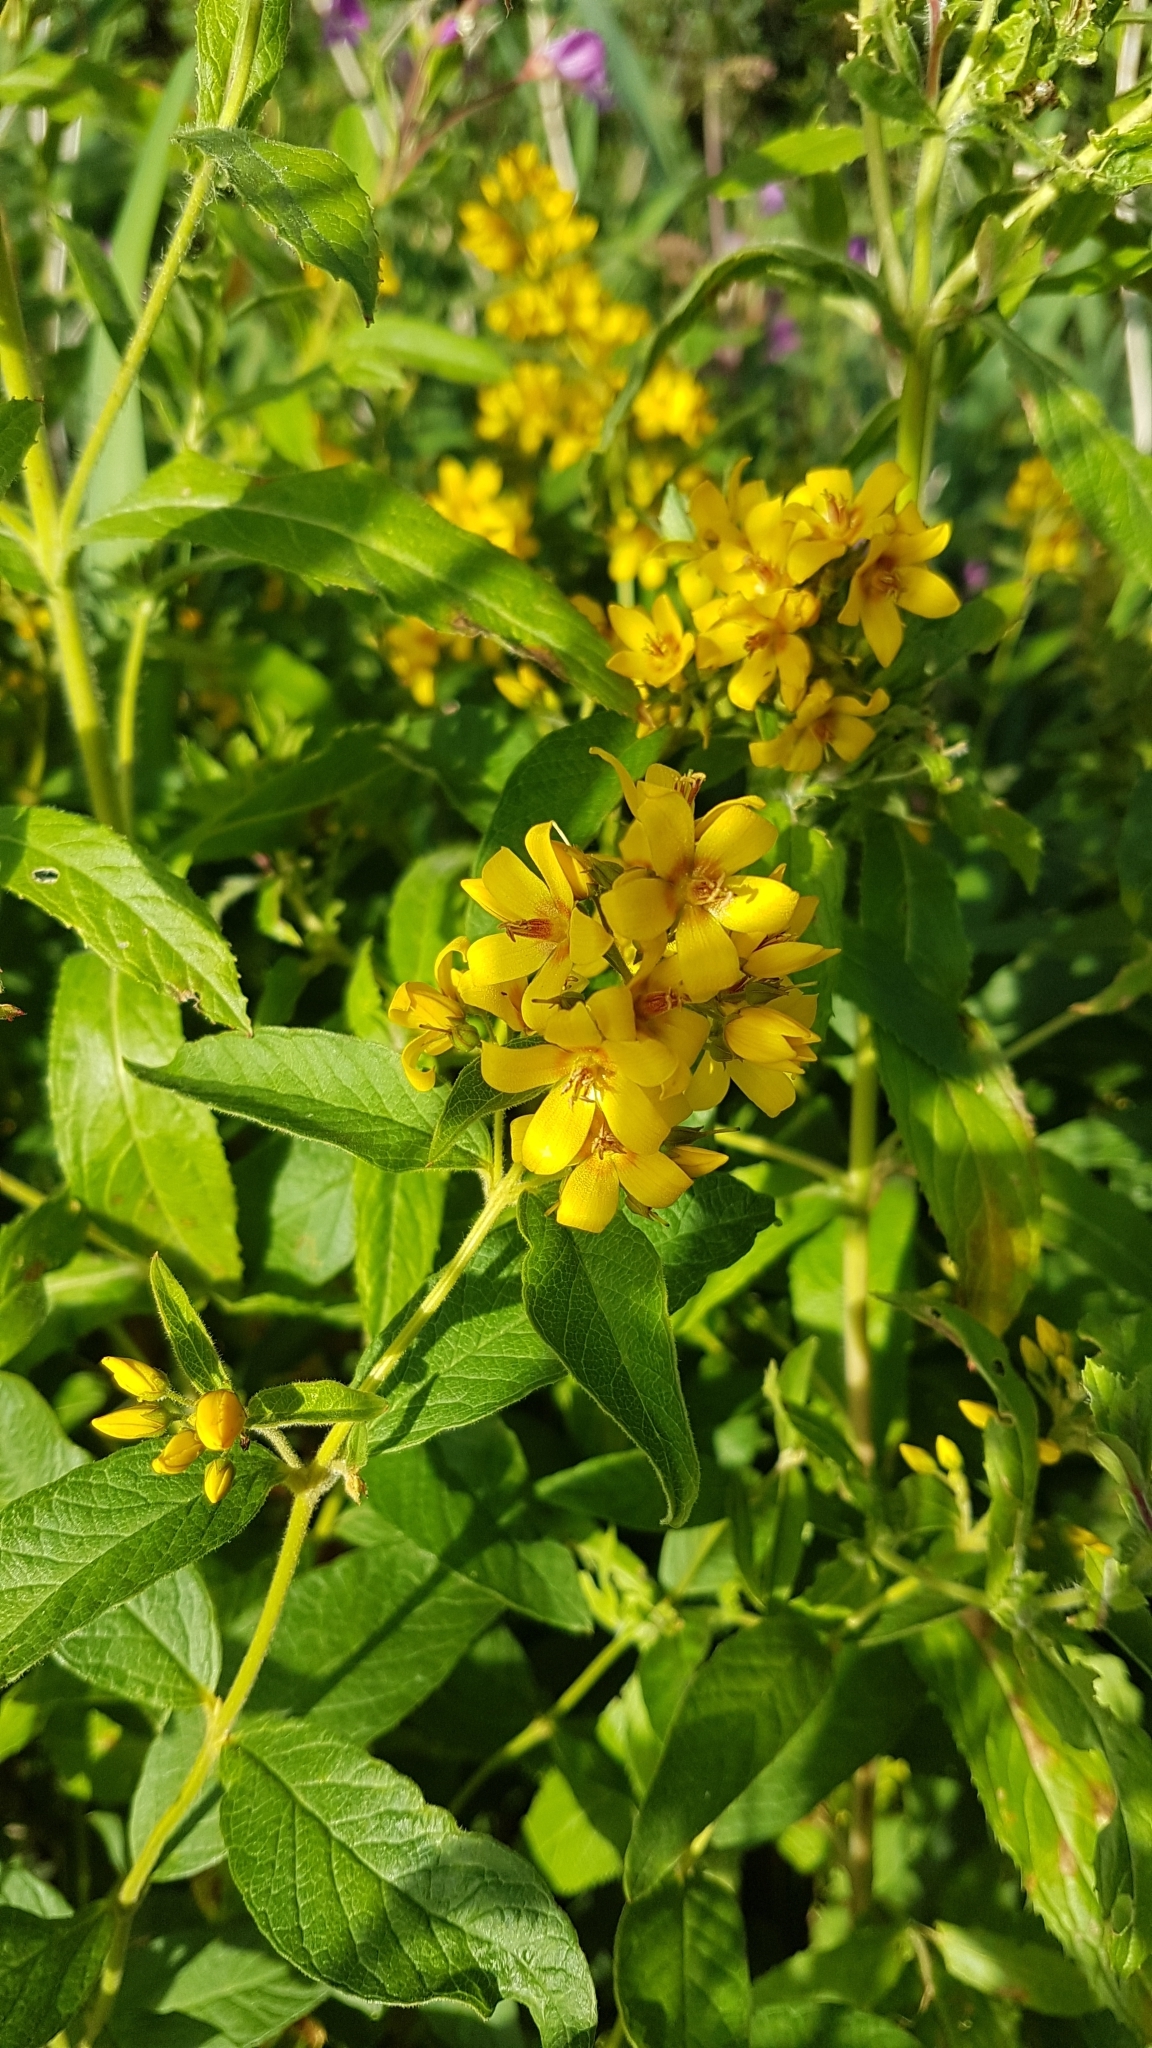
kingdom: Plantae
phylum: Tracheophyta
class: Magnoliopsida
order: Ericales
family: Primulaceae
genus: Lysimachia
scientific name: Lysimachia vulgaris
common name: Yellow loosestrife
